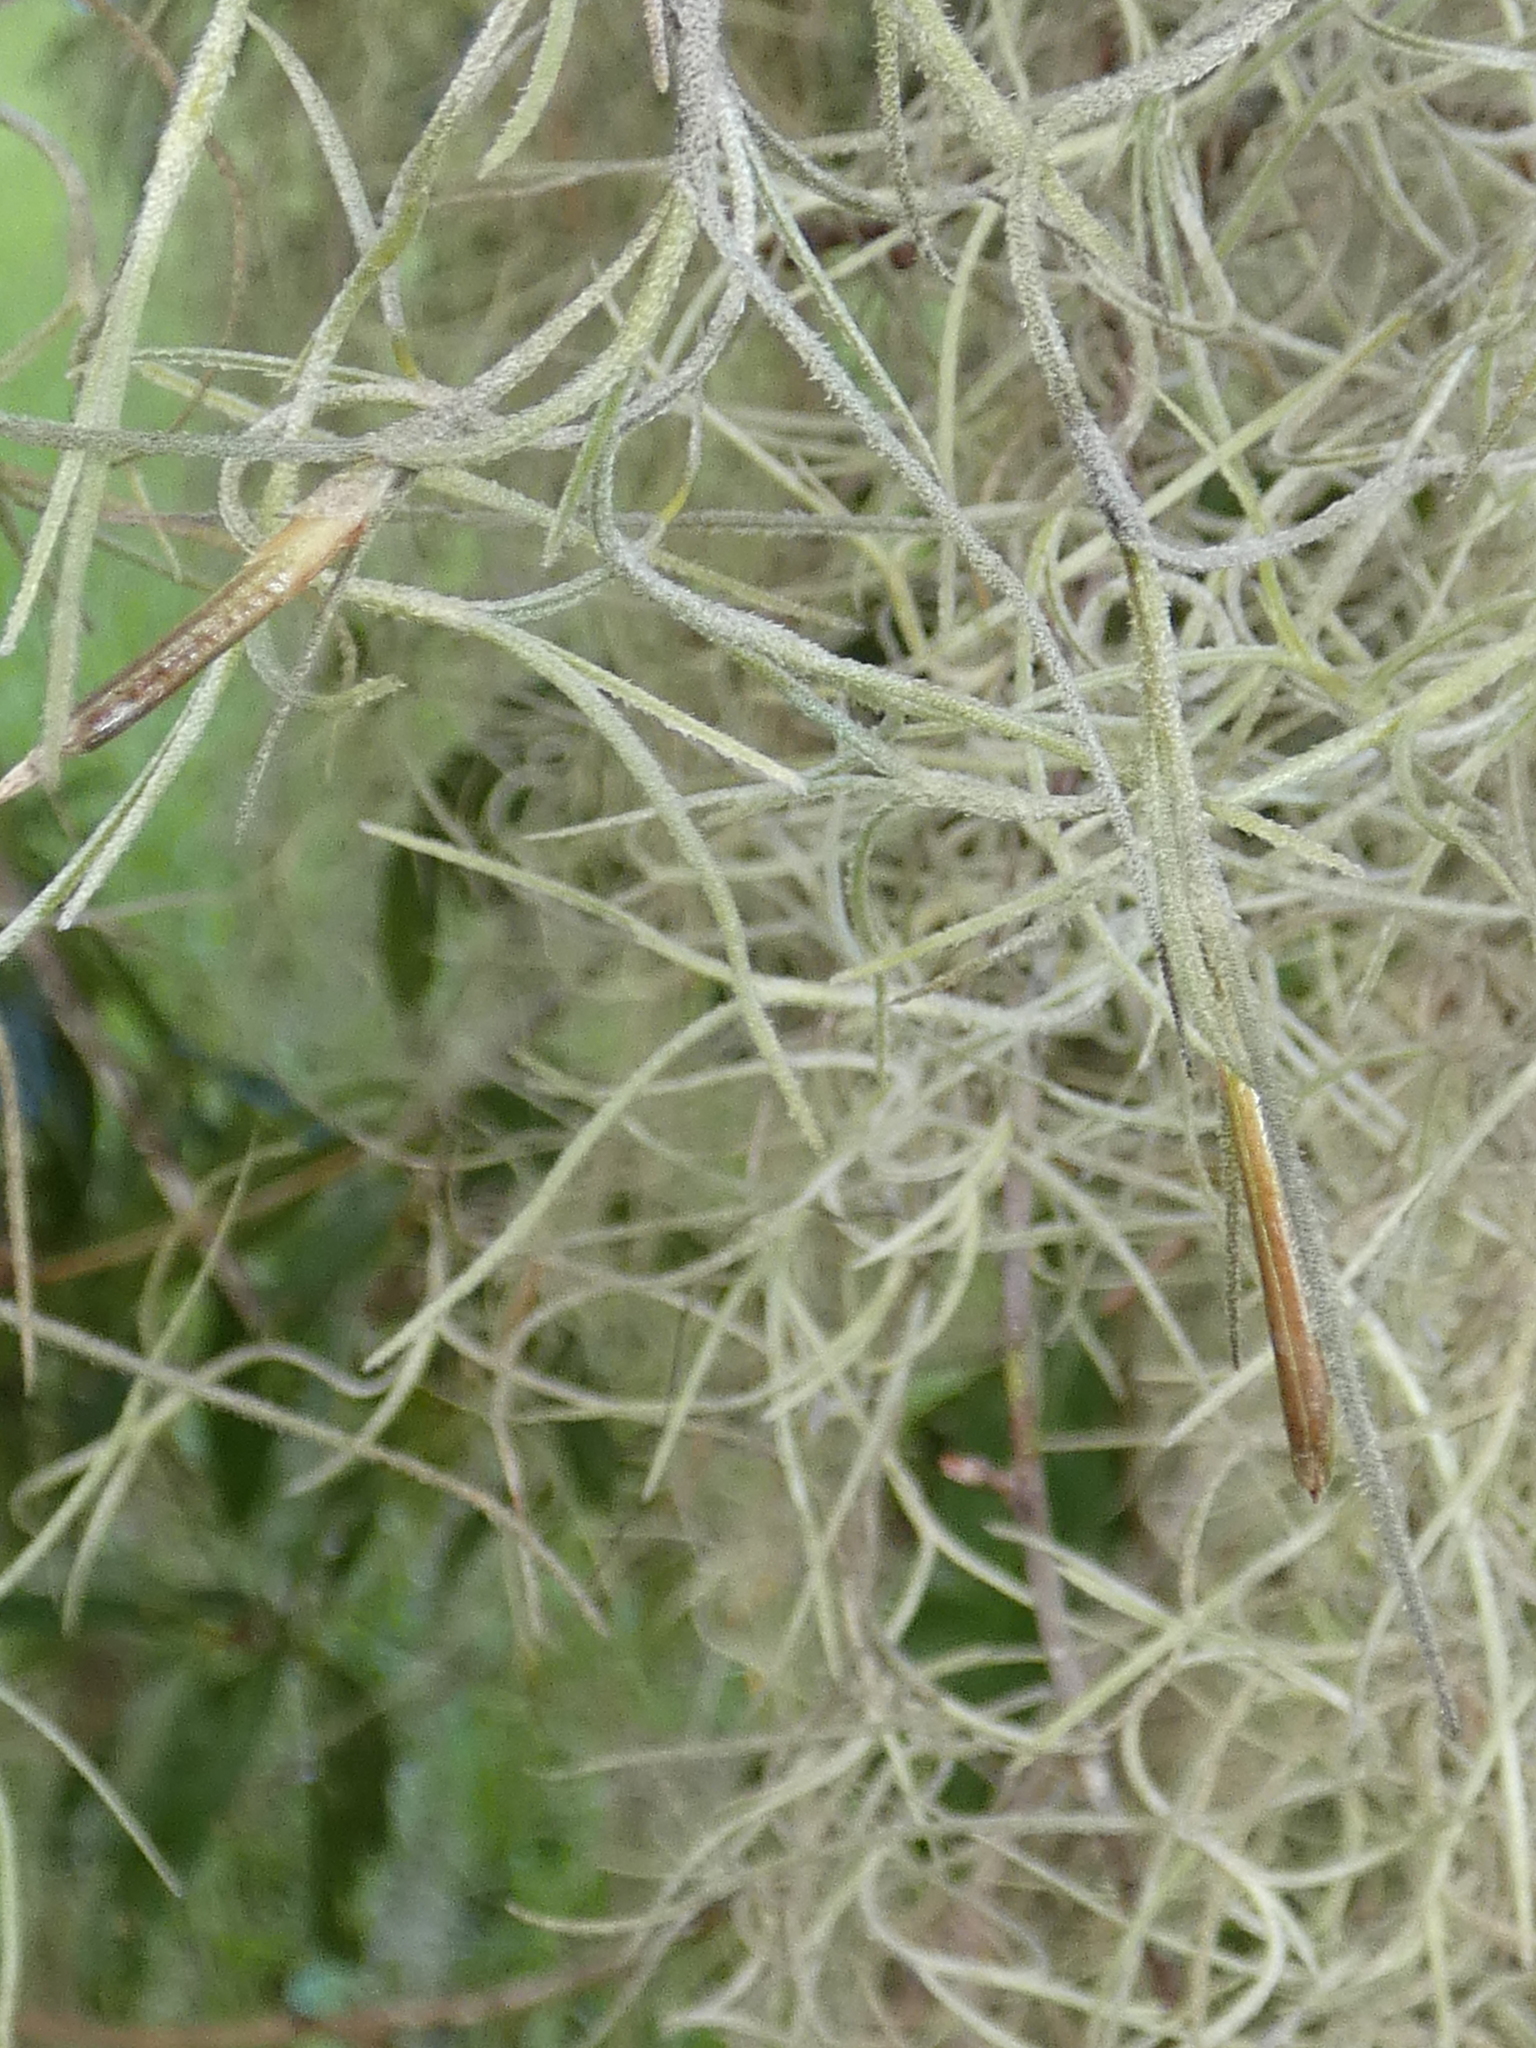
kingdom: Plantae
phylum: Tracheophyta
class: Liliopsida
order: Poales
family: Bromeliaceae
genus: Tillandsia
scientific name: Tillandsia usneoides
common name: Spanish moss
